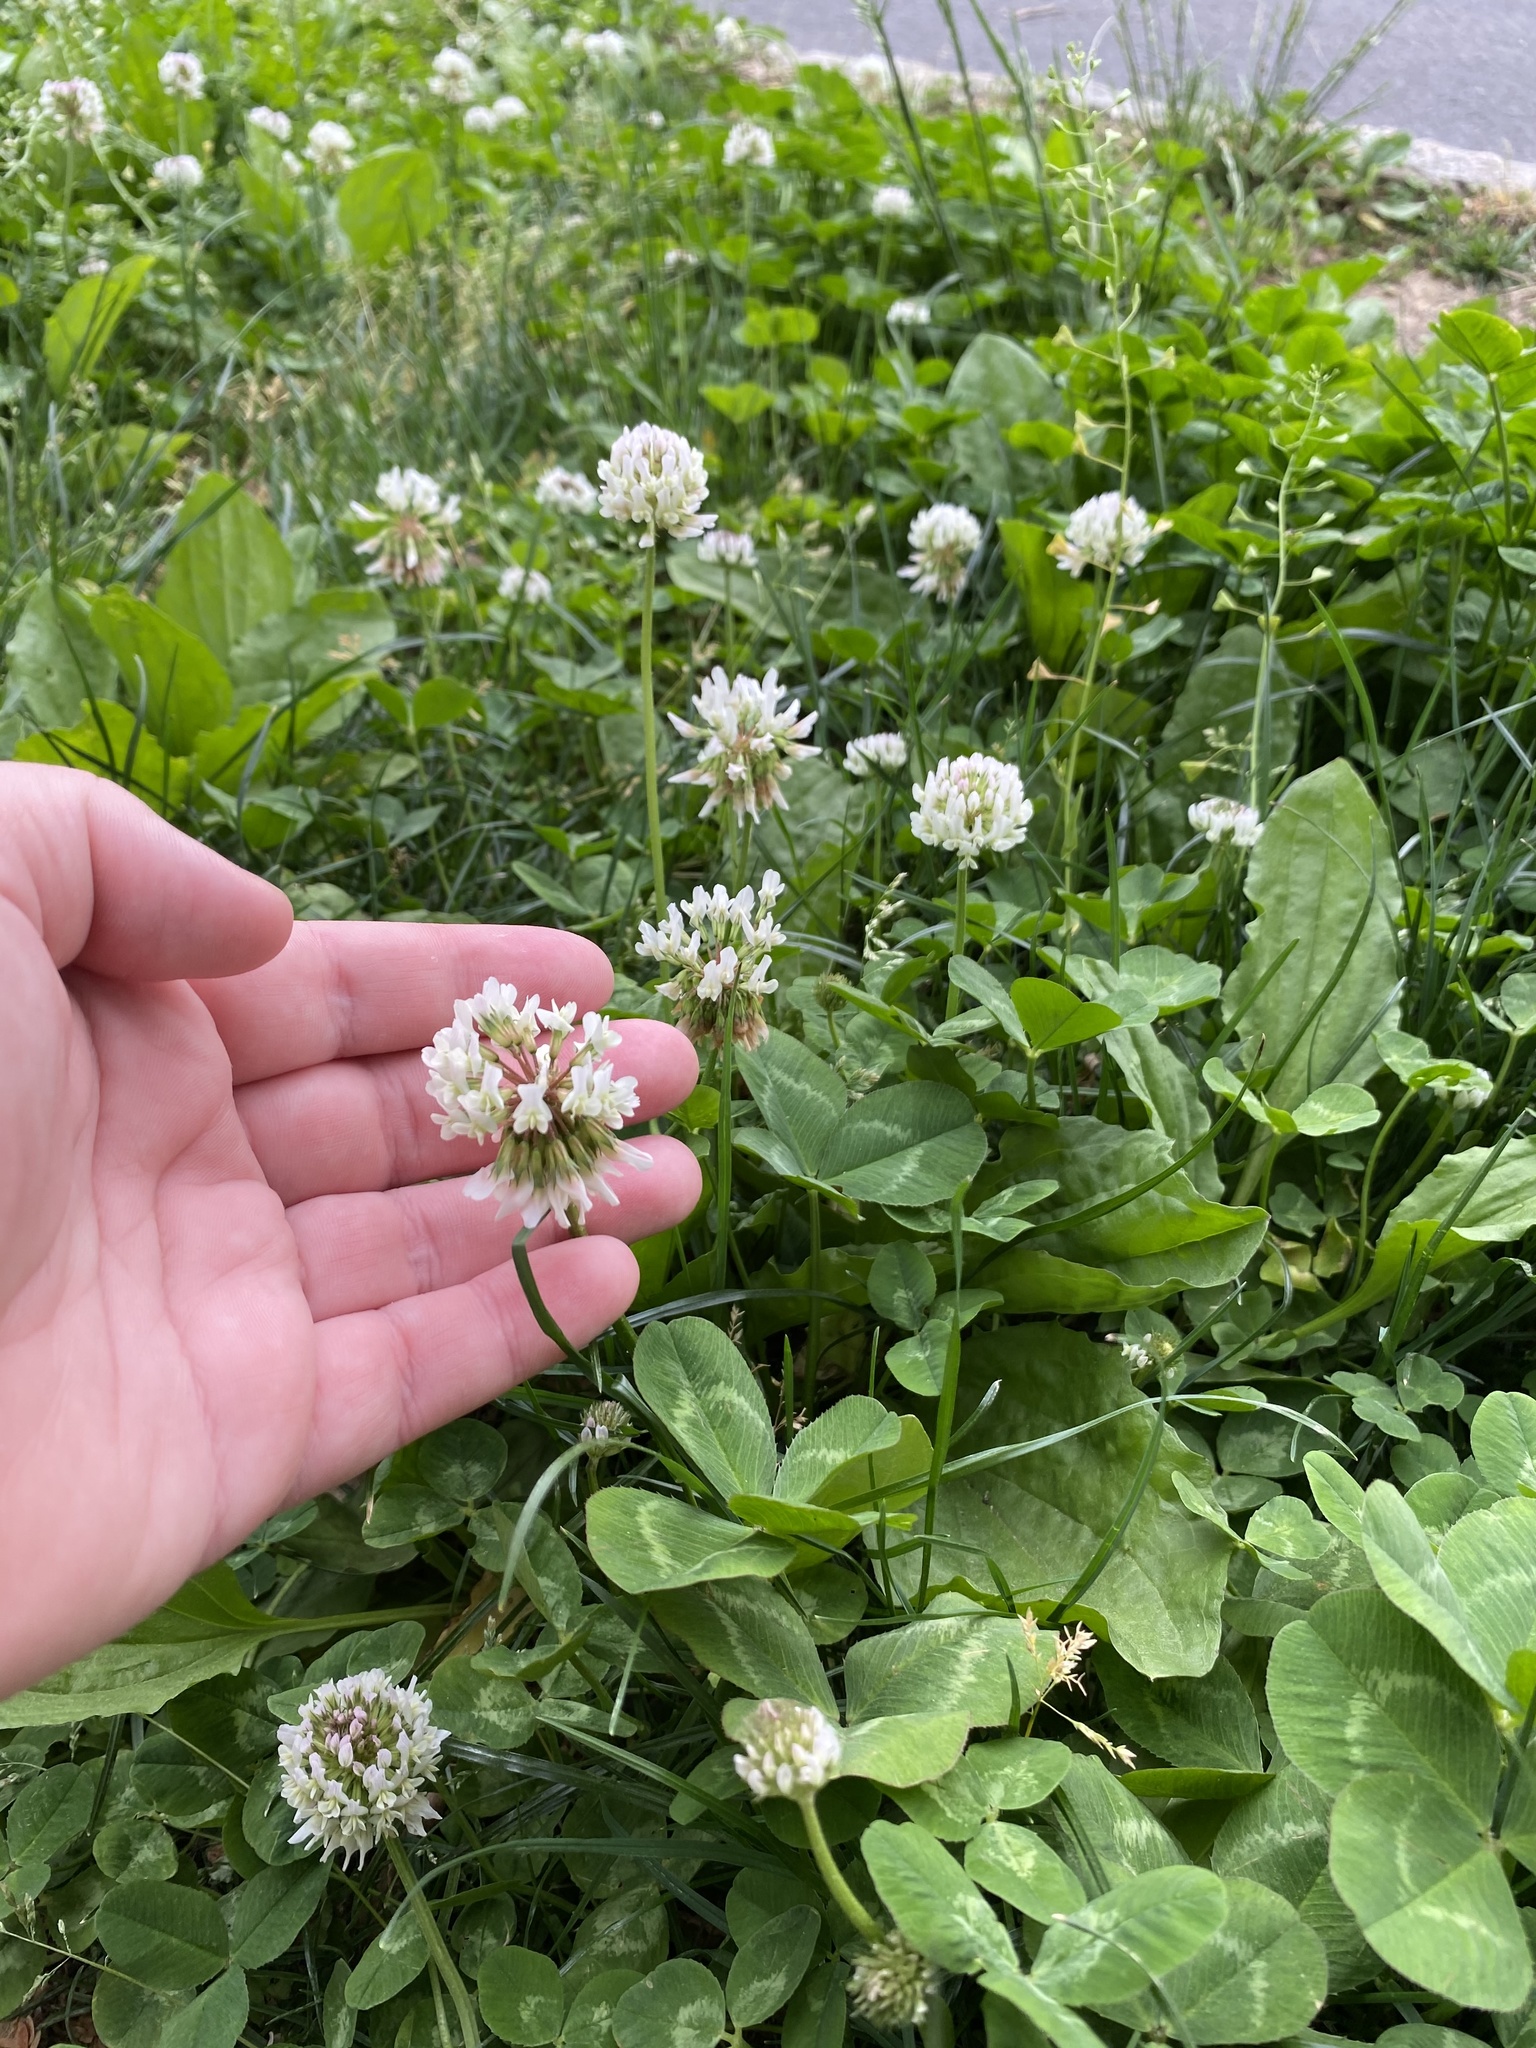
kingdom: Plantae
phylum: Tracheophyta
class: Magnoliopsida
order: Fabales
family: Fabaceae
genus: Trifolium
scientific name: Trifolium repens
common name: White clover
